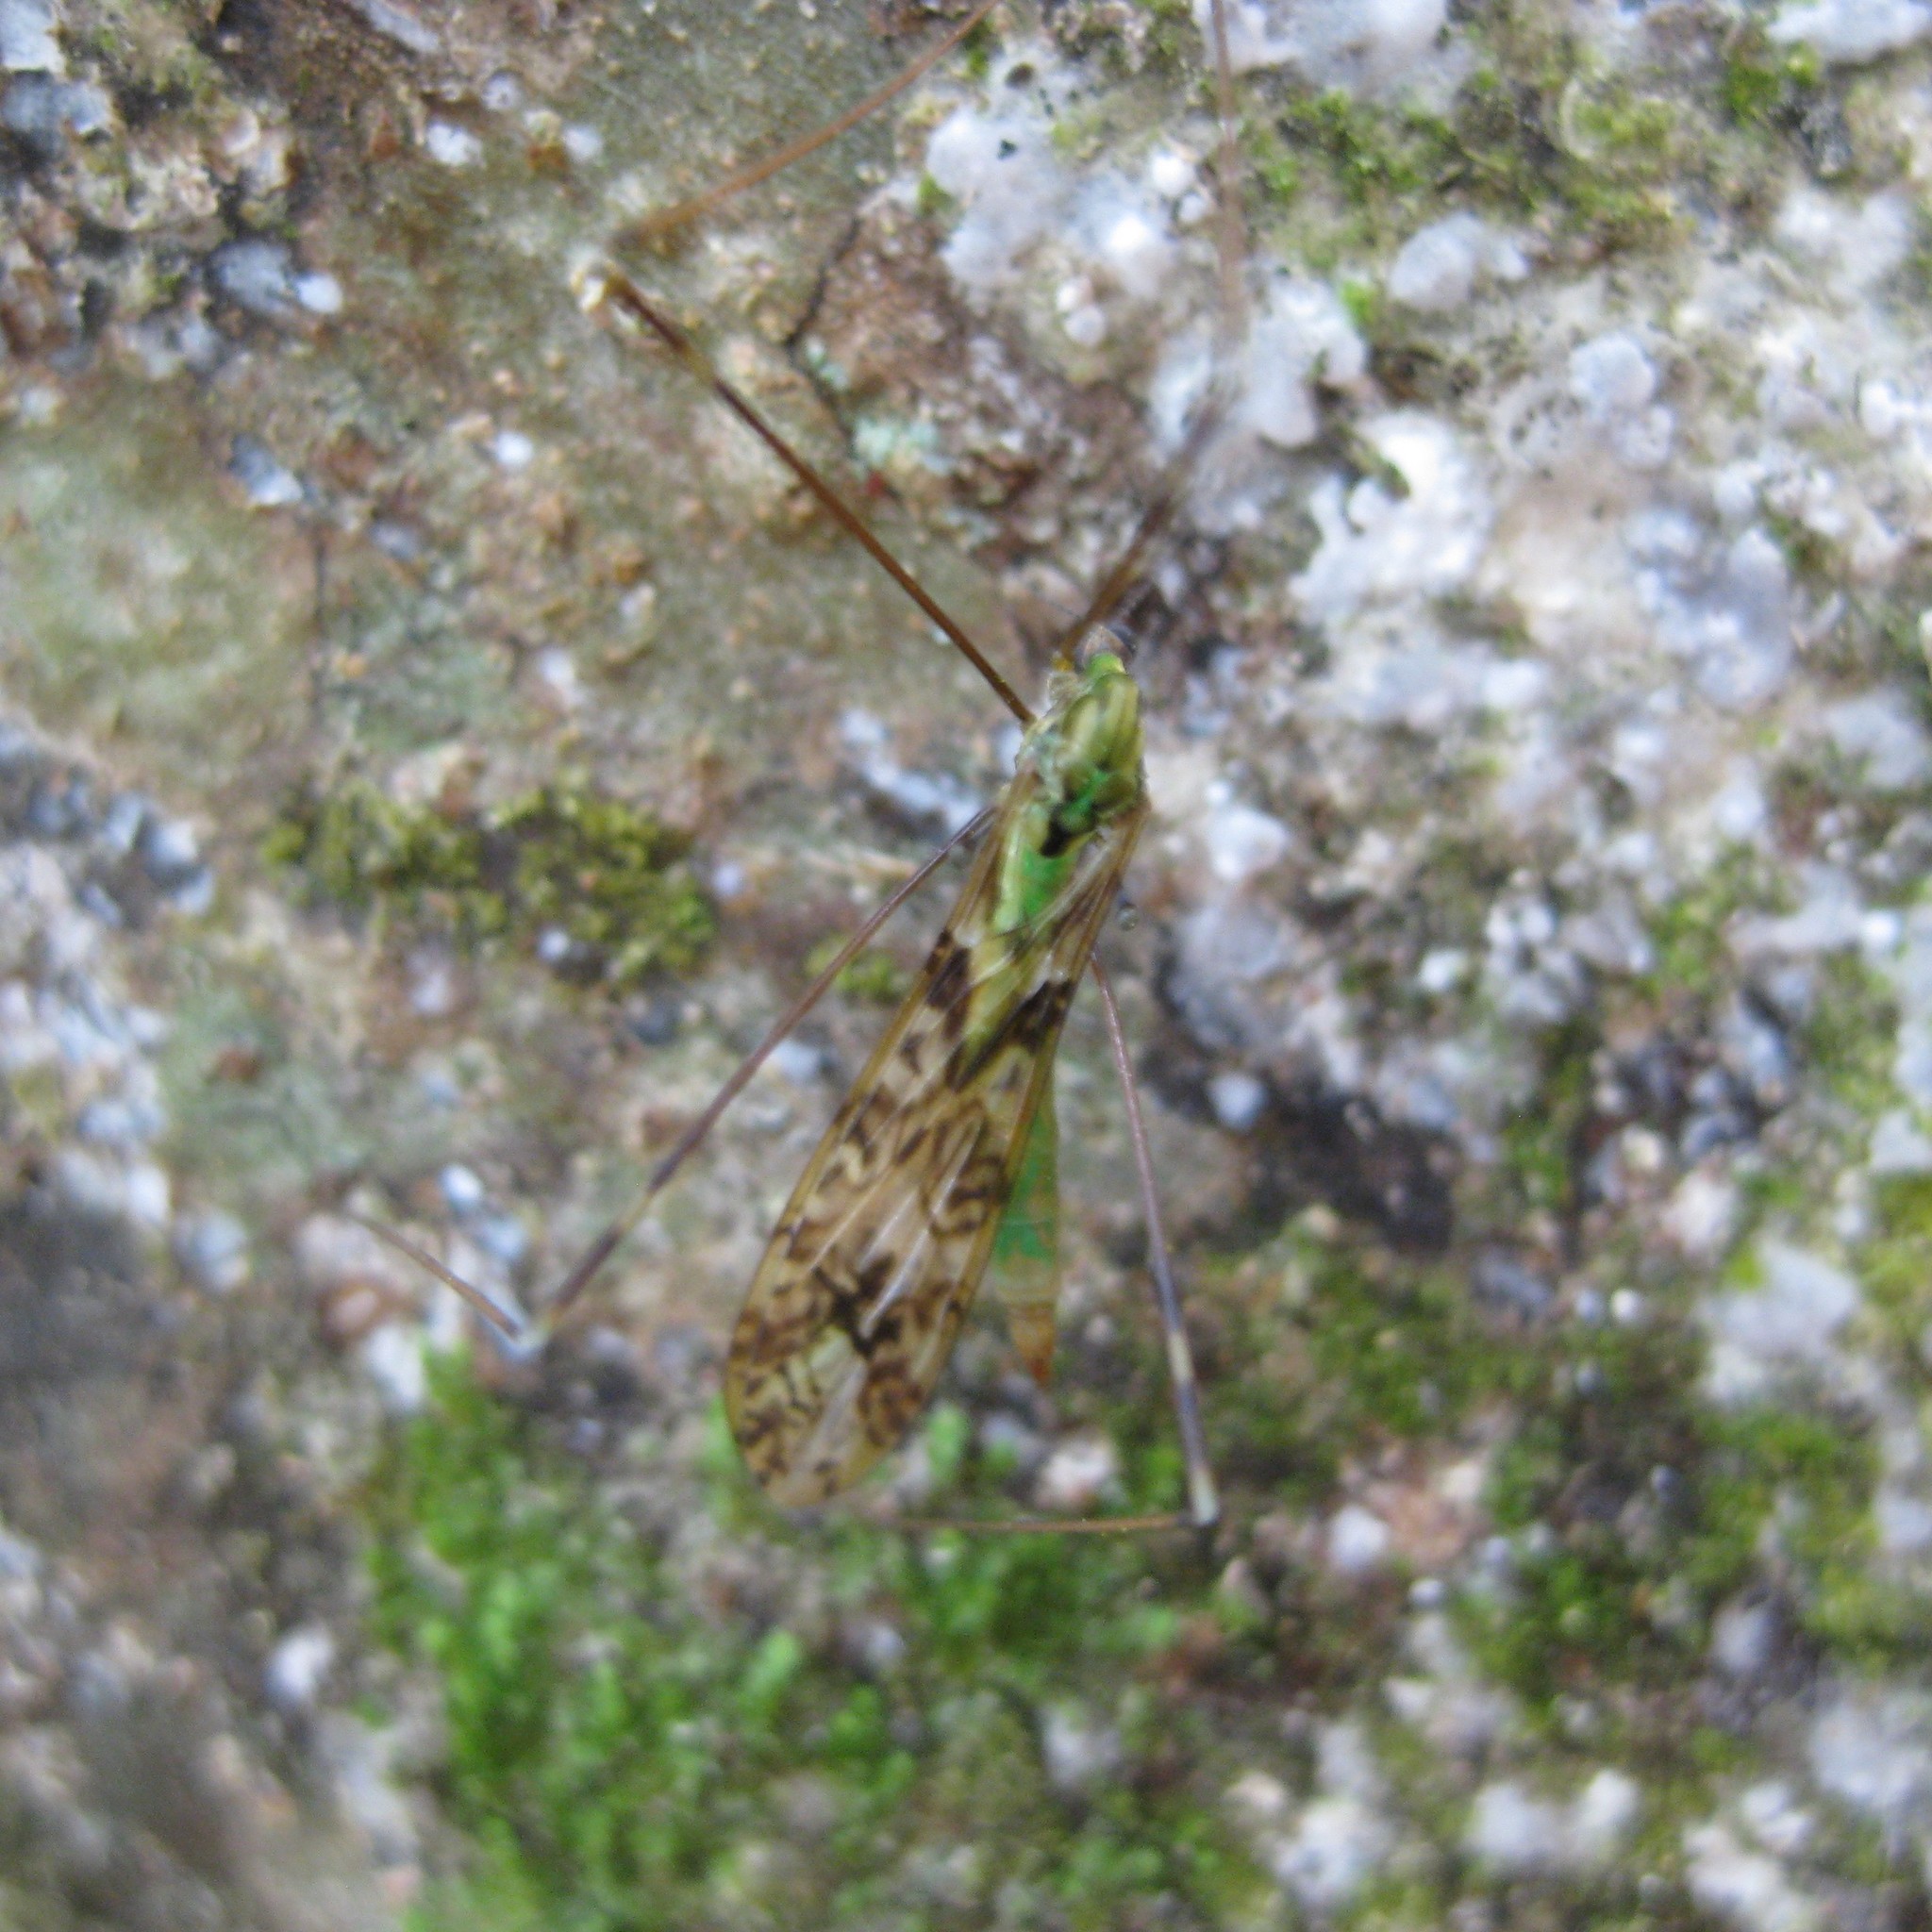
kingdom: Animalia
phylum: Arthropoda
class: Insecta
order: Diptera
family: Limoniidae
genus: Discobola
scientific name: Discobola tessellata
